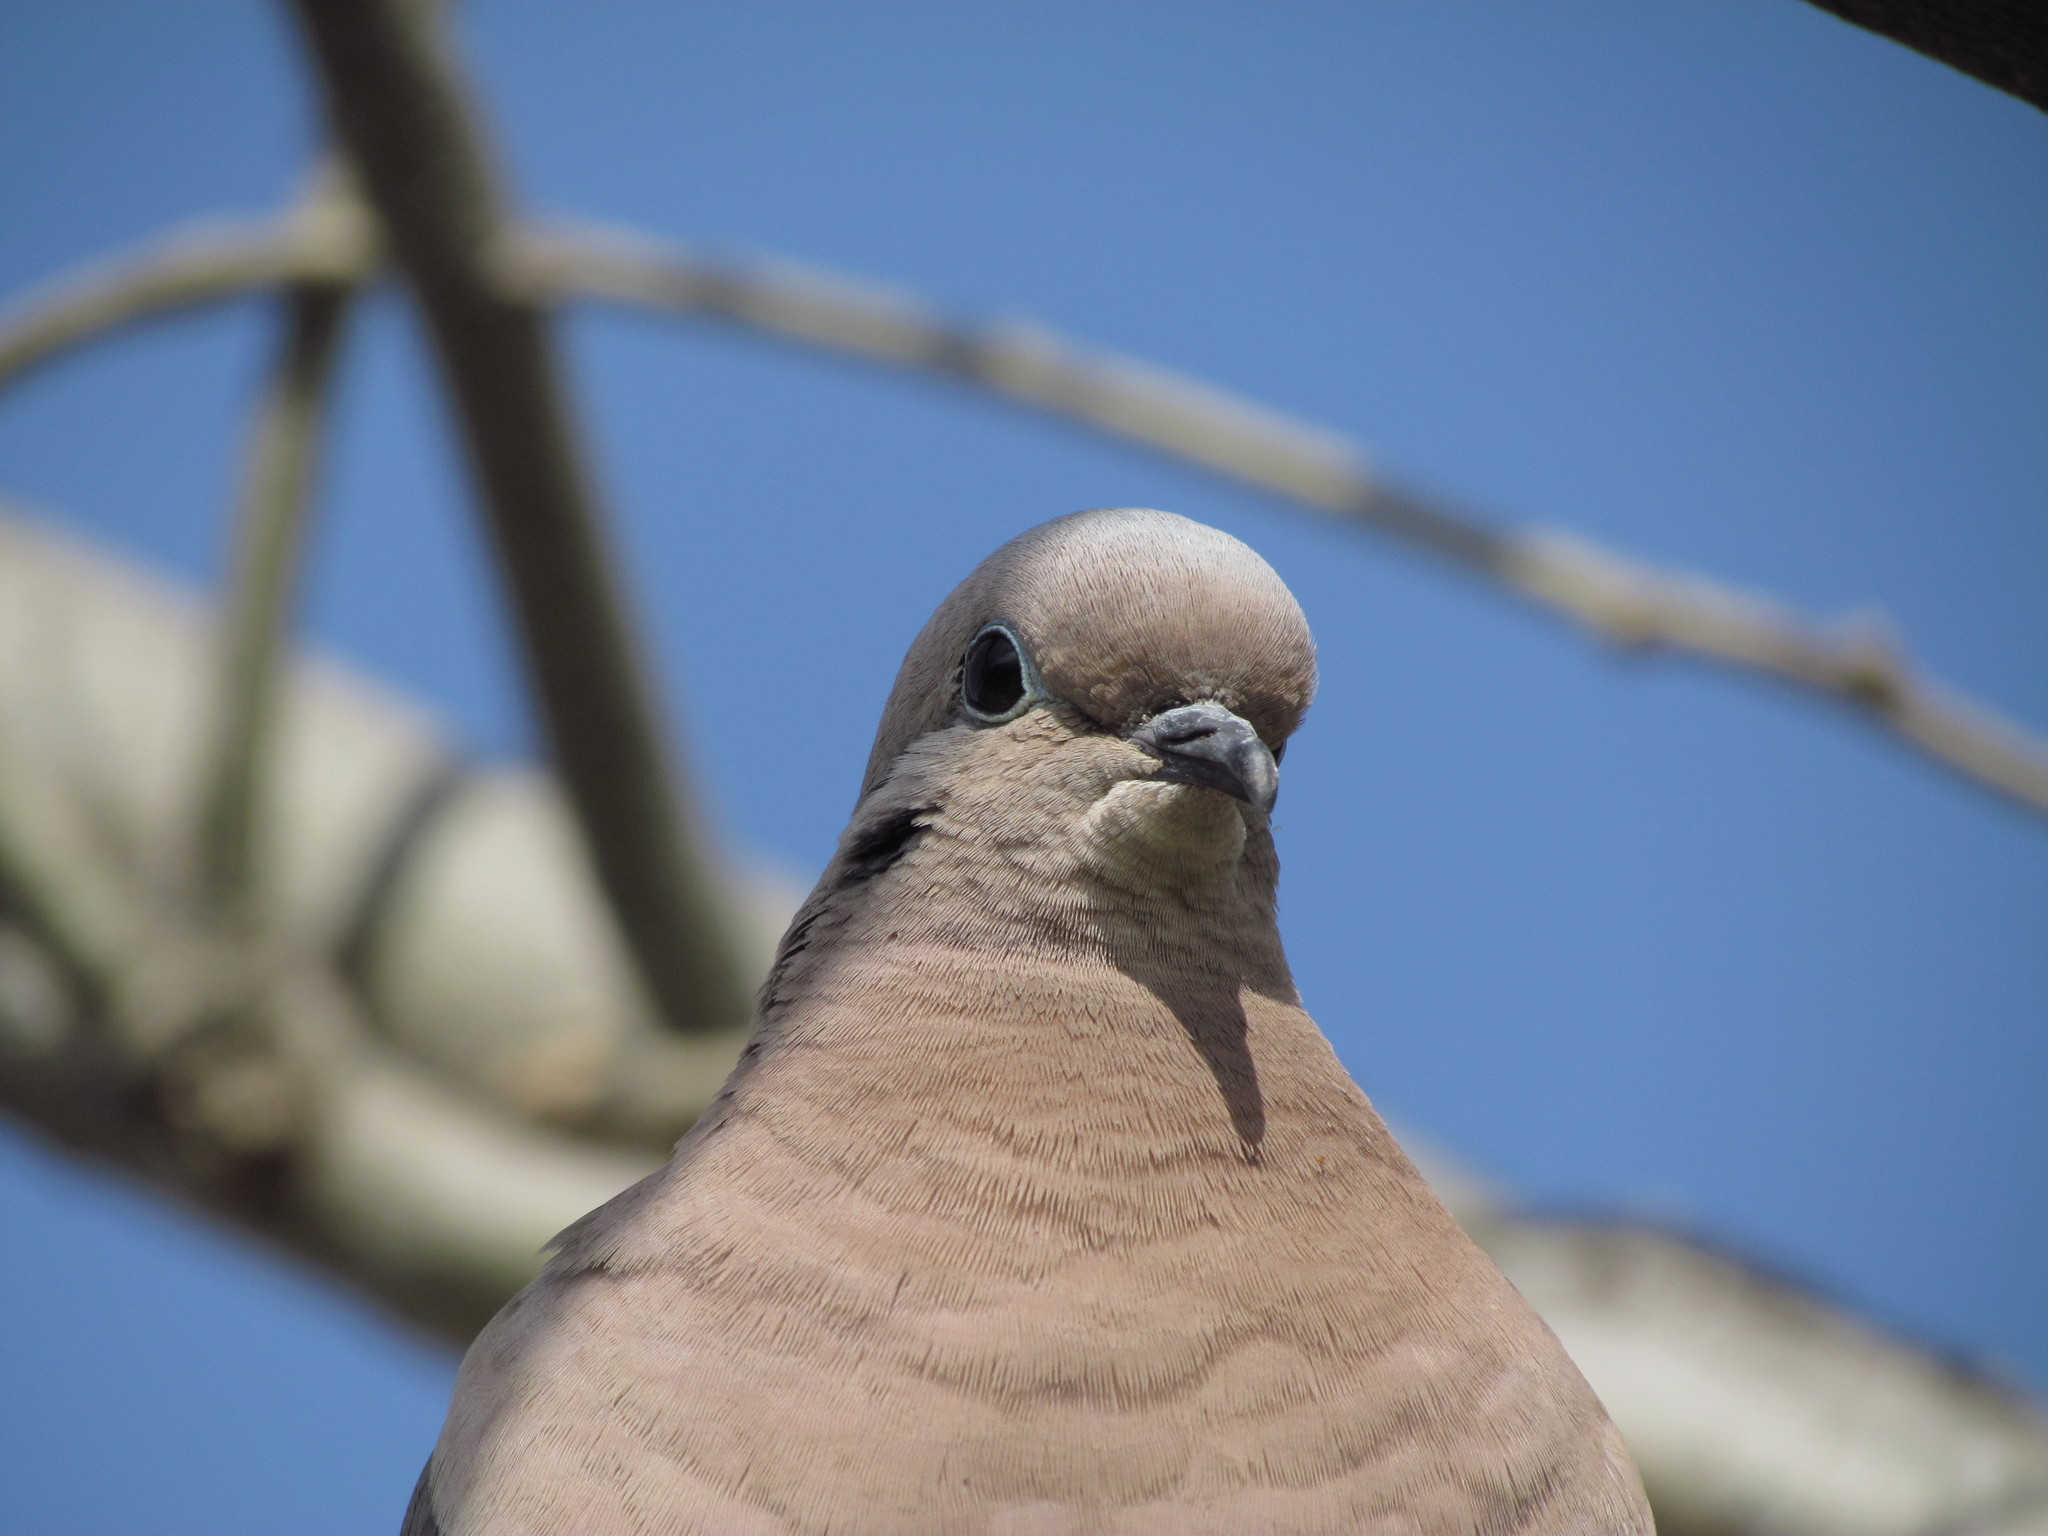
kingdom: Animalia
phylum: Chordata
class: Aves
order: Columbiformes
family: Columbidae
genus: Zenaida
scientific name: Zenaida auriculata
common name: Eared dove
